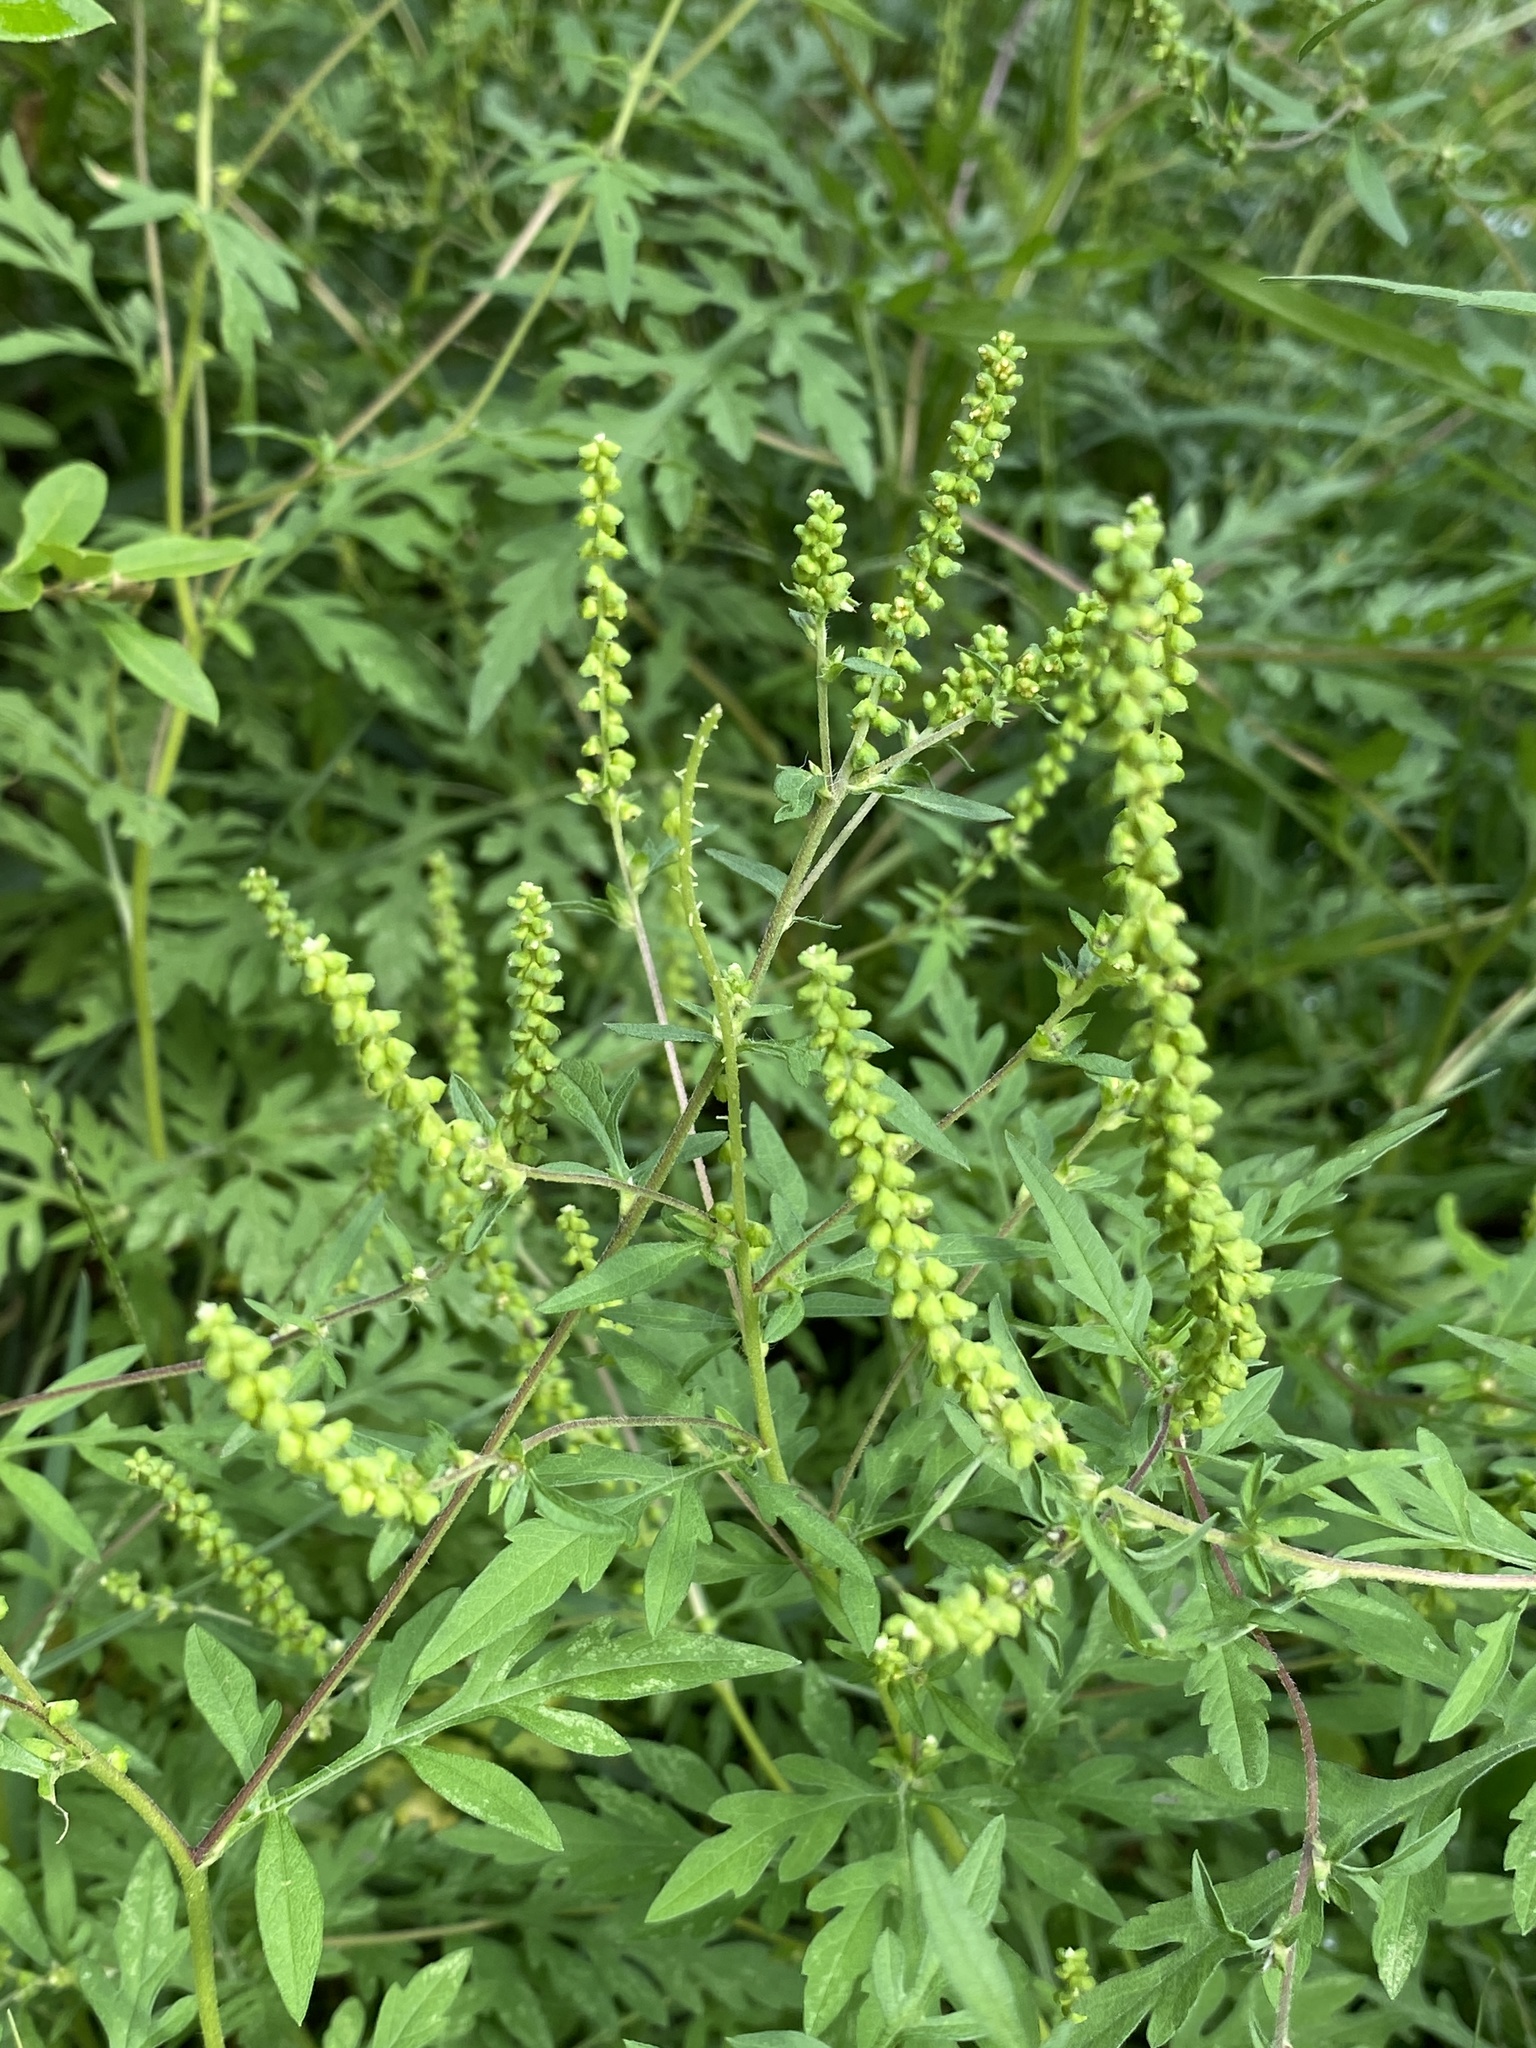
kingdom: Plantae
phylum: Tracheophyta
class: Magnoliopsida
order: Asterales
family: Asteraceae
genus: Ambrosia
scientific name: Ambrosia artemisiifolia
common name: Annual ragweed
